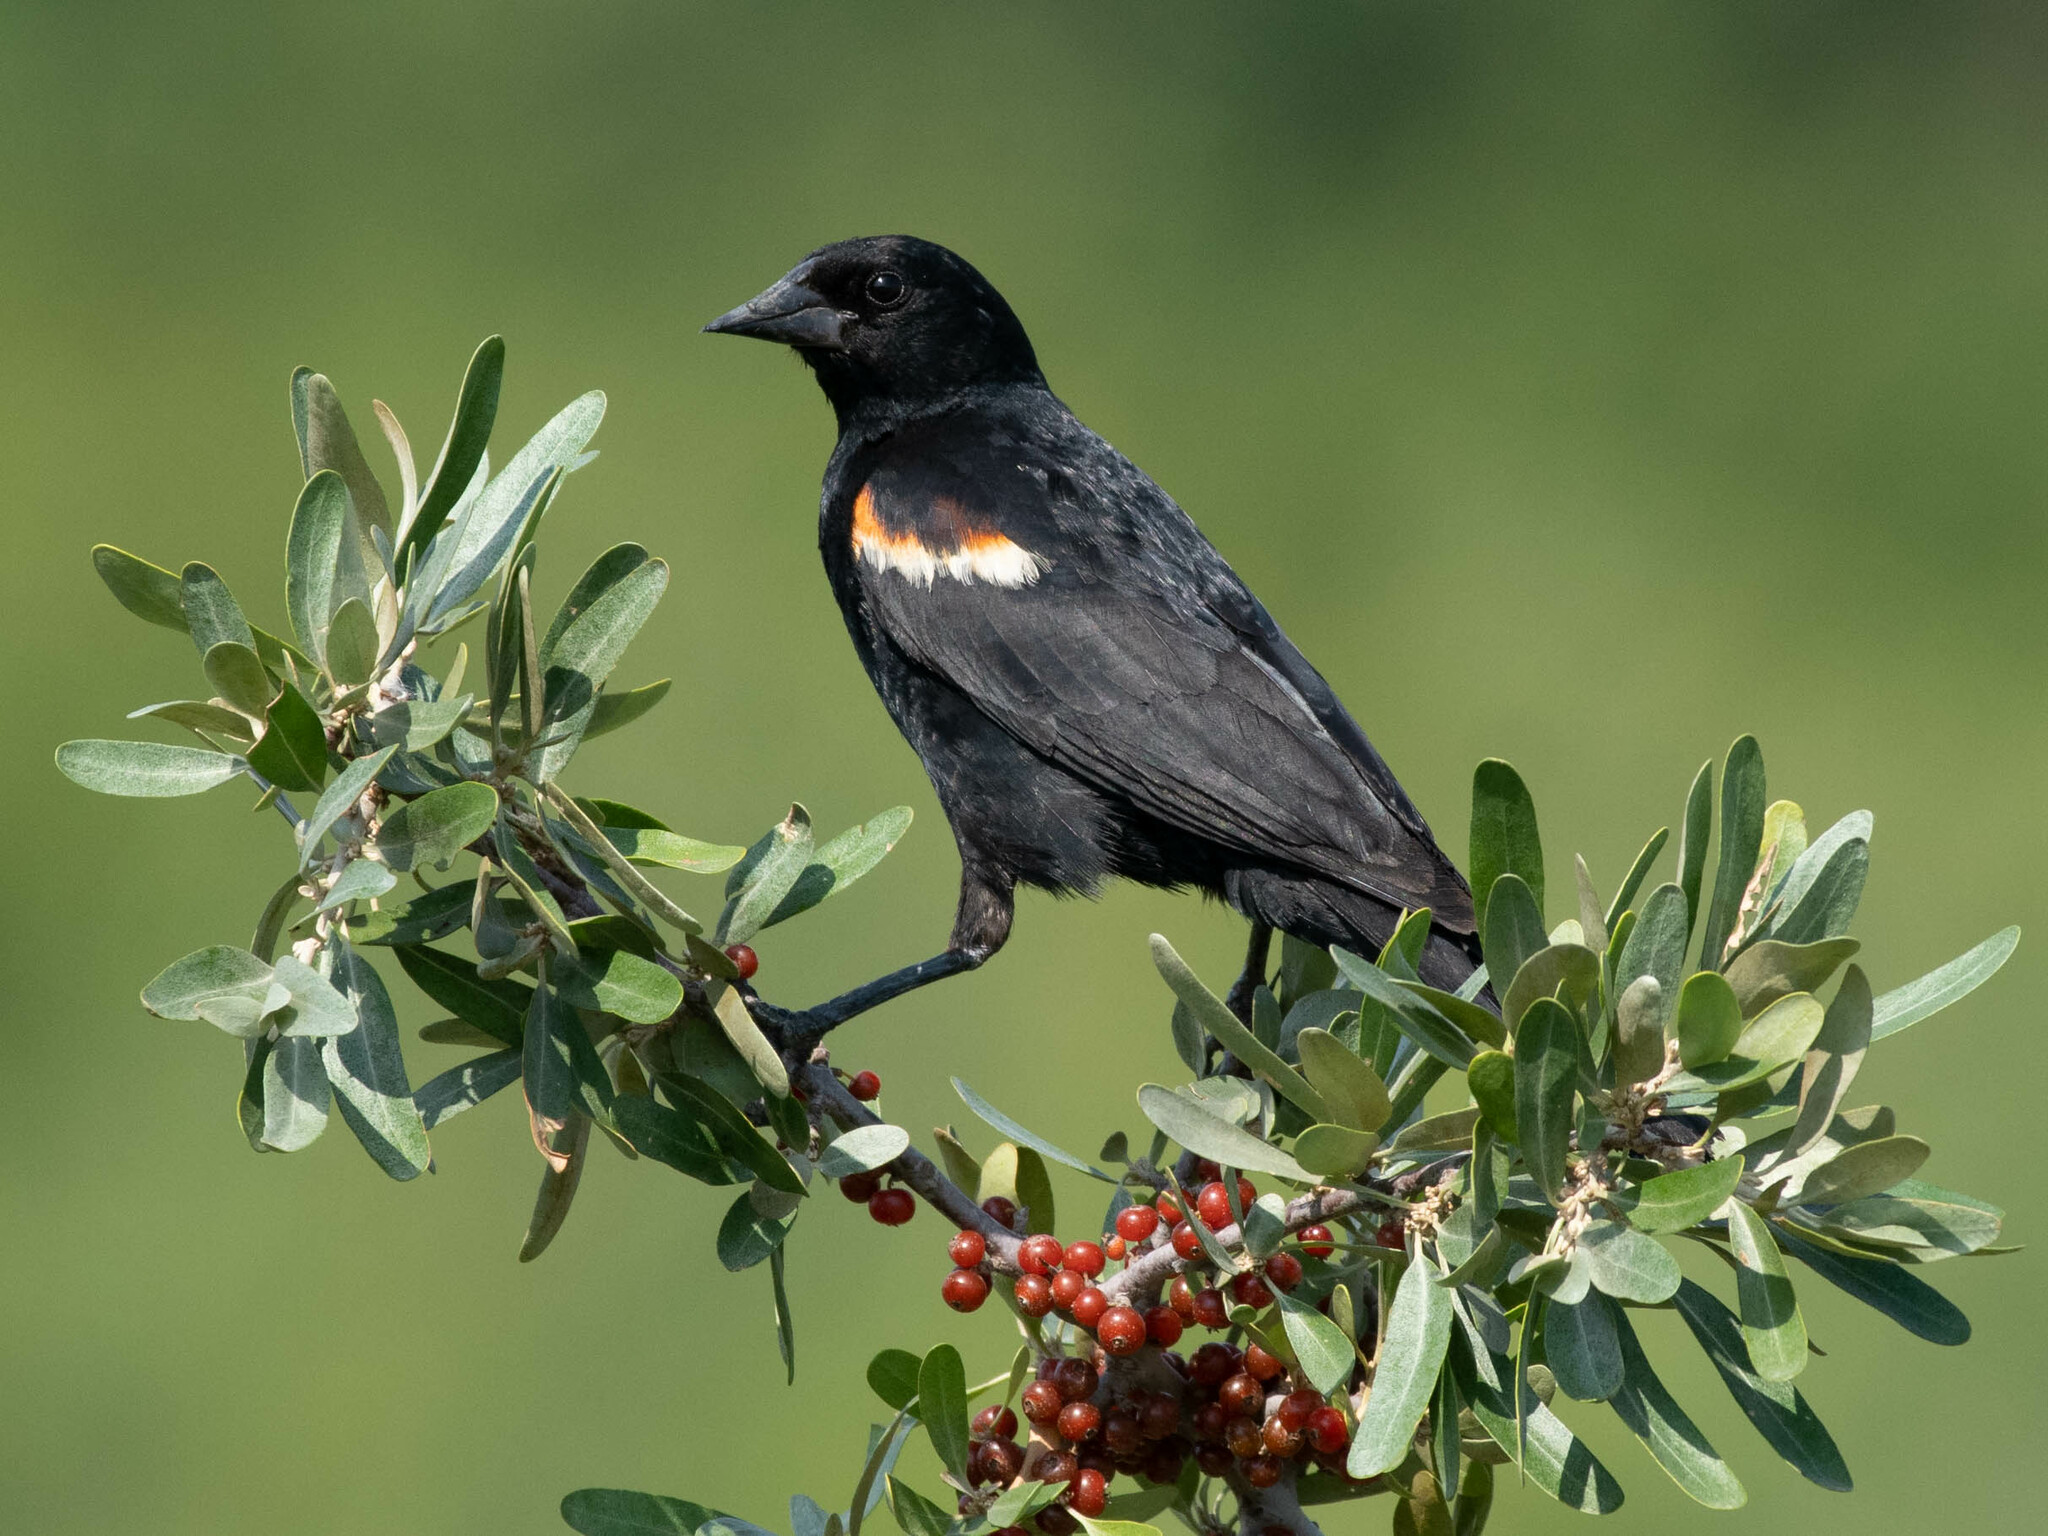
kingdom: Animalia
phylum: Chordata
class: Aves
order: Passeriformes
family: Icteridae
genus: Agelaius
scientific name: Agelaius phoeniceus
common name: Red-winged blackbird
